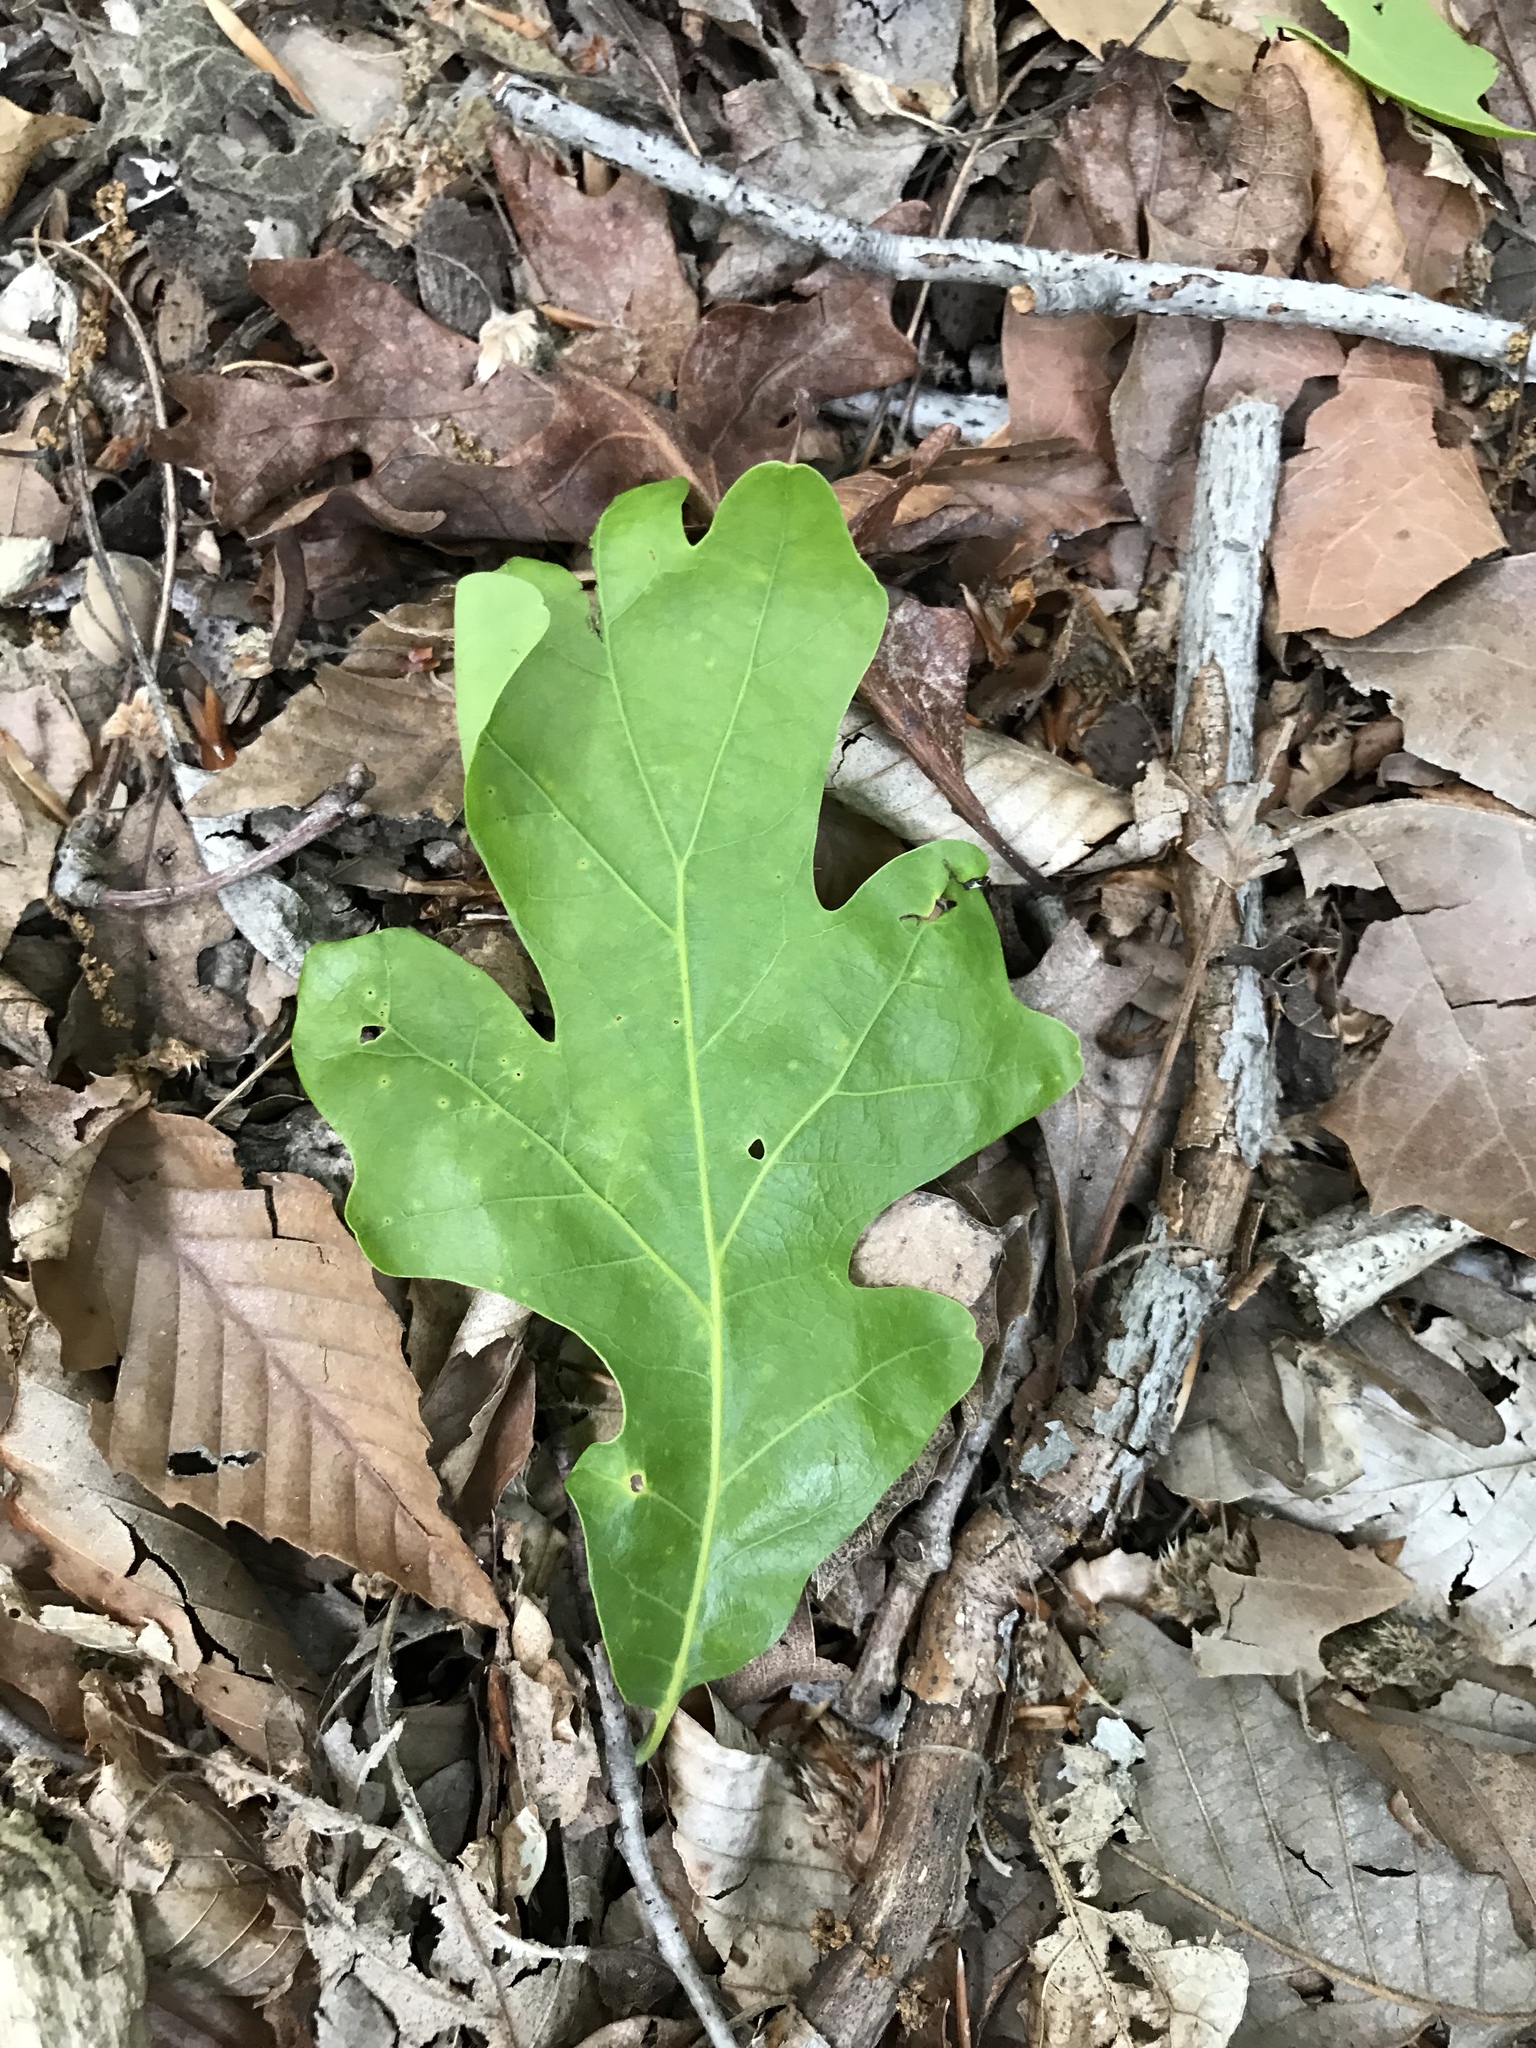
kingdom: Plantae
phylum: Tracheophyta
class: Magnoliopsida
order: Fagales
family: Fagaceae
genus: Quercus
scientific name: Quercus stellata
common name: Post oak
